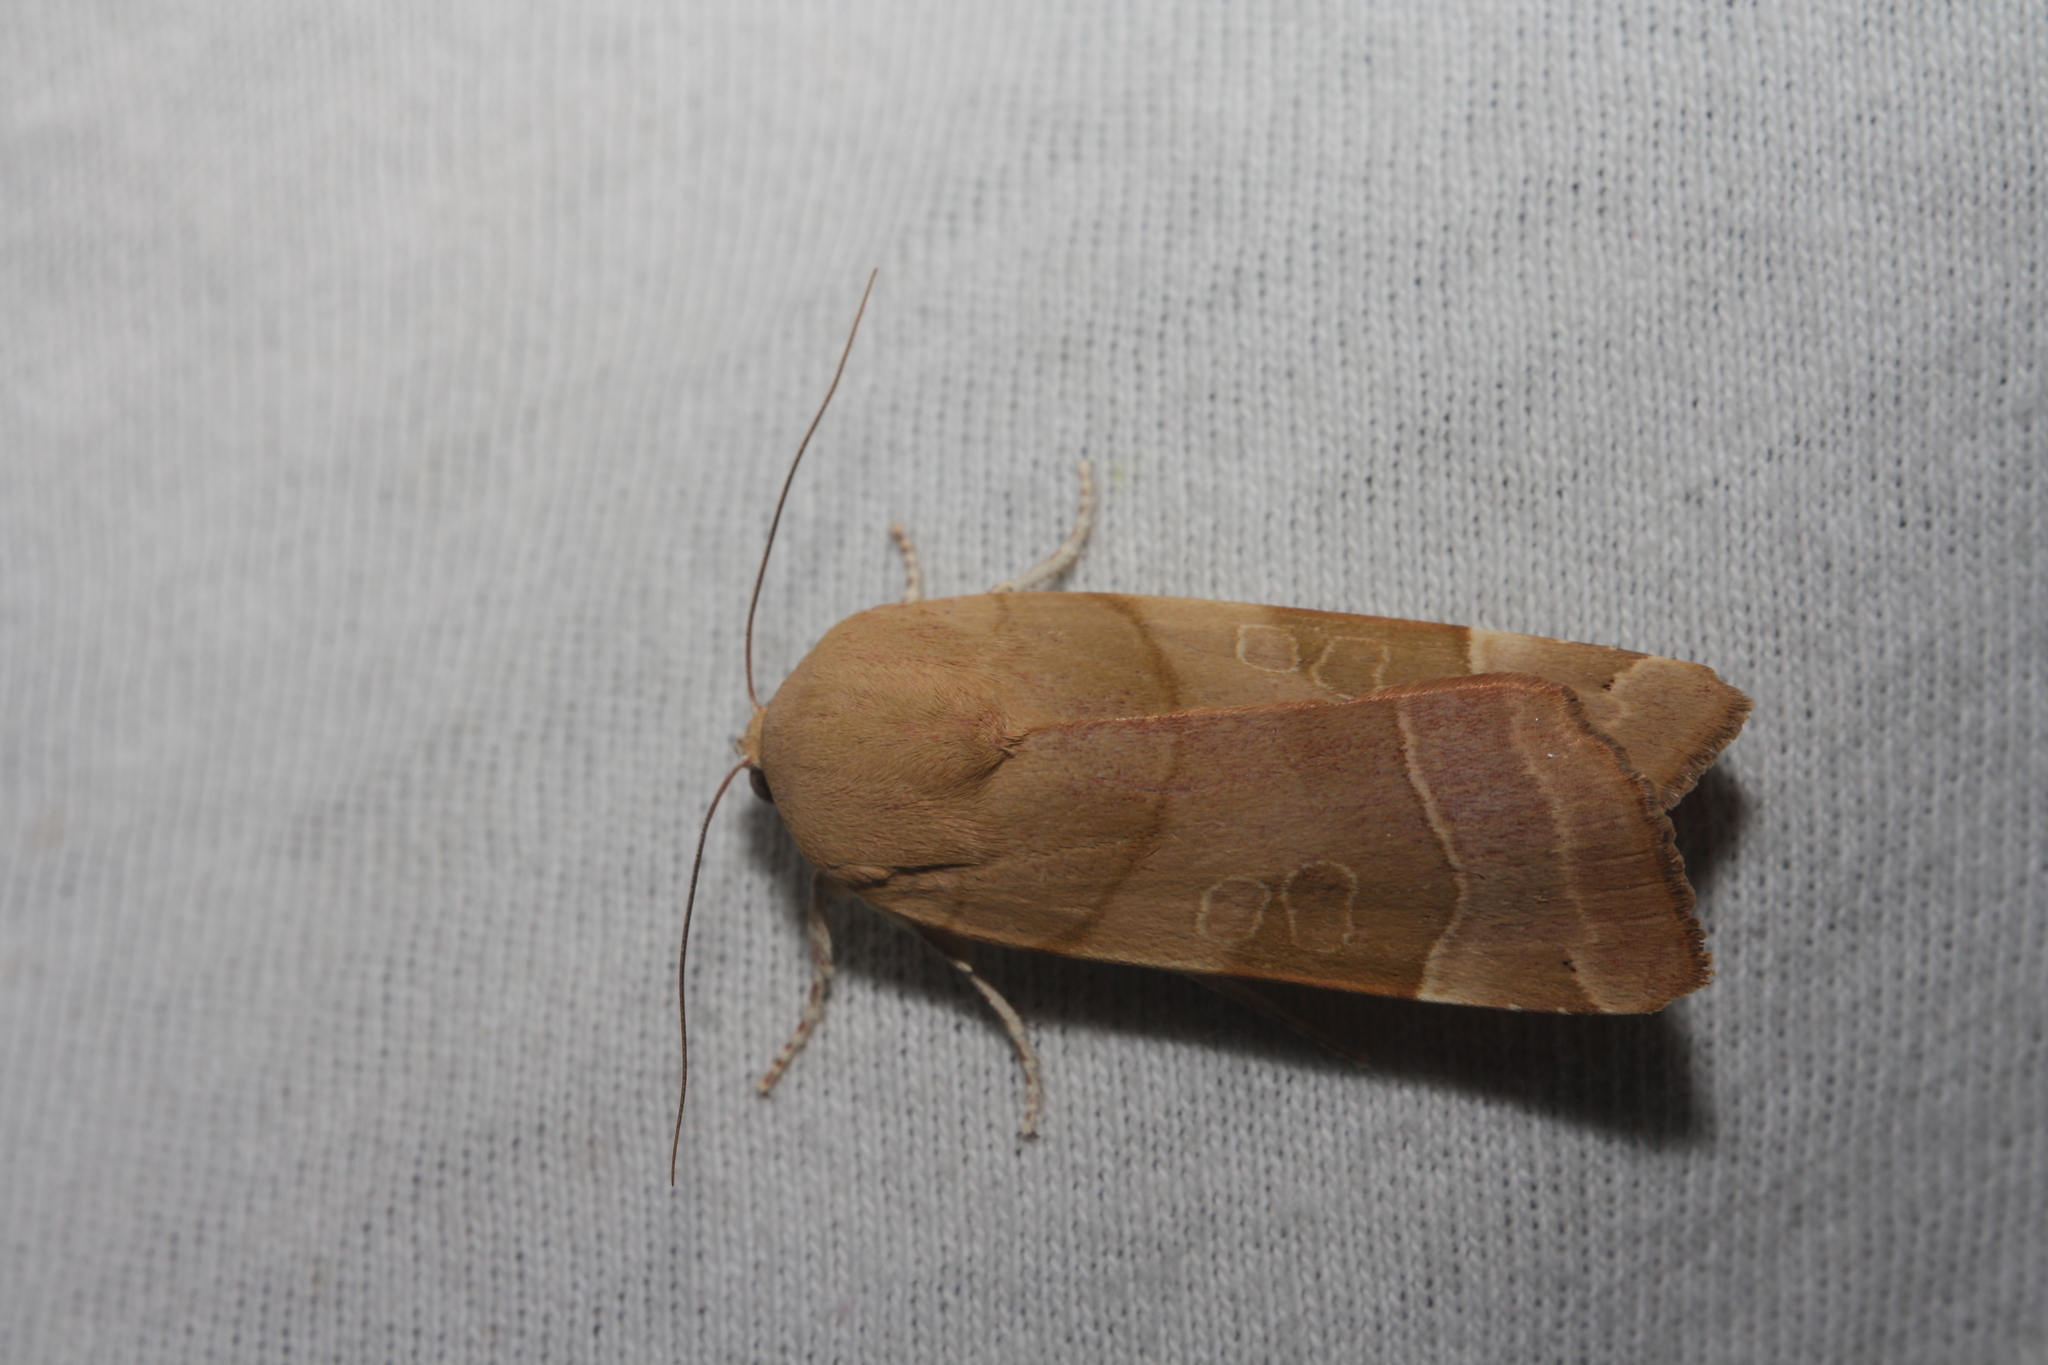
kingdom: Animalia
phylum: Arthropoda
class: Insecta
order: Lepidoptera
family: Noctuidae
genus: Noctua
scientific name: Noctua fimbriata
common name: Broad-bordered yellow underwing
